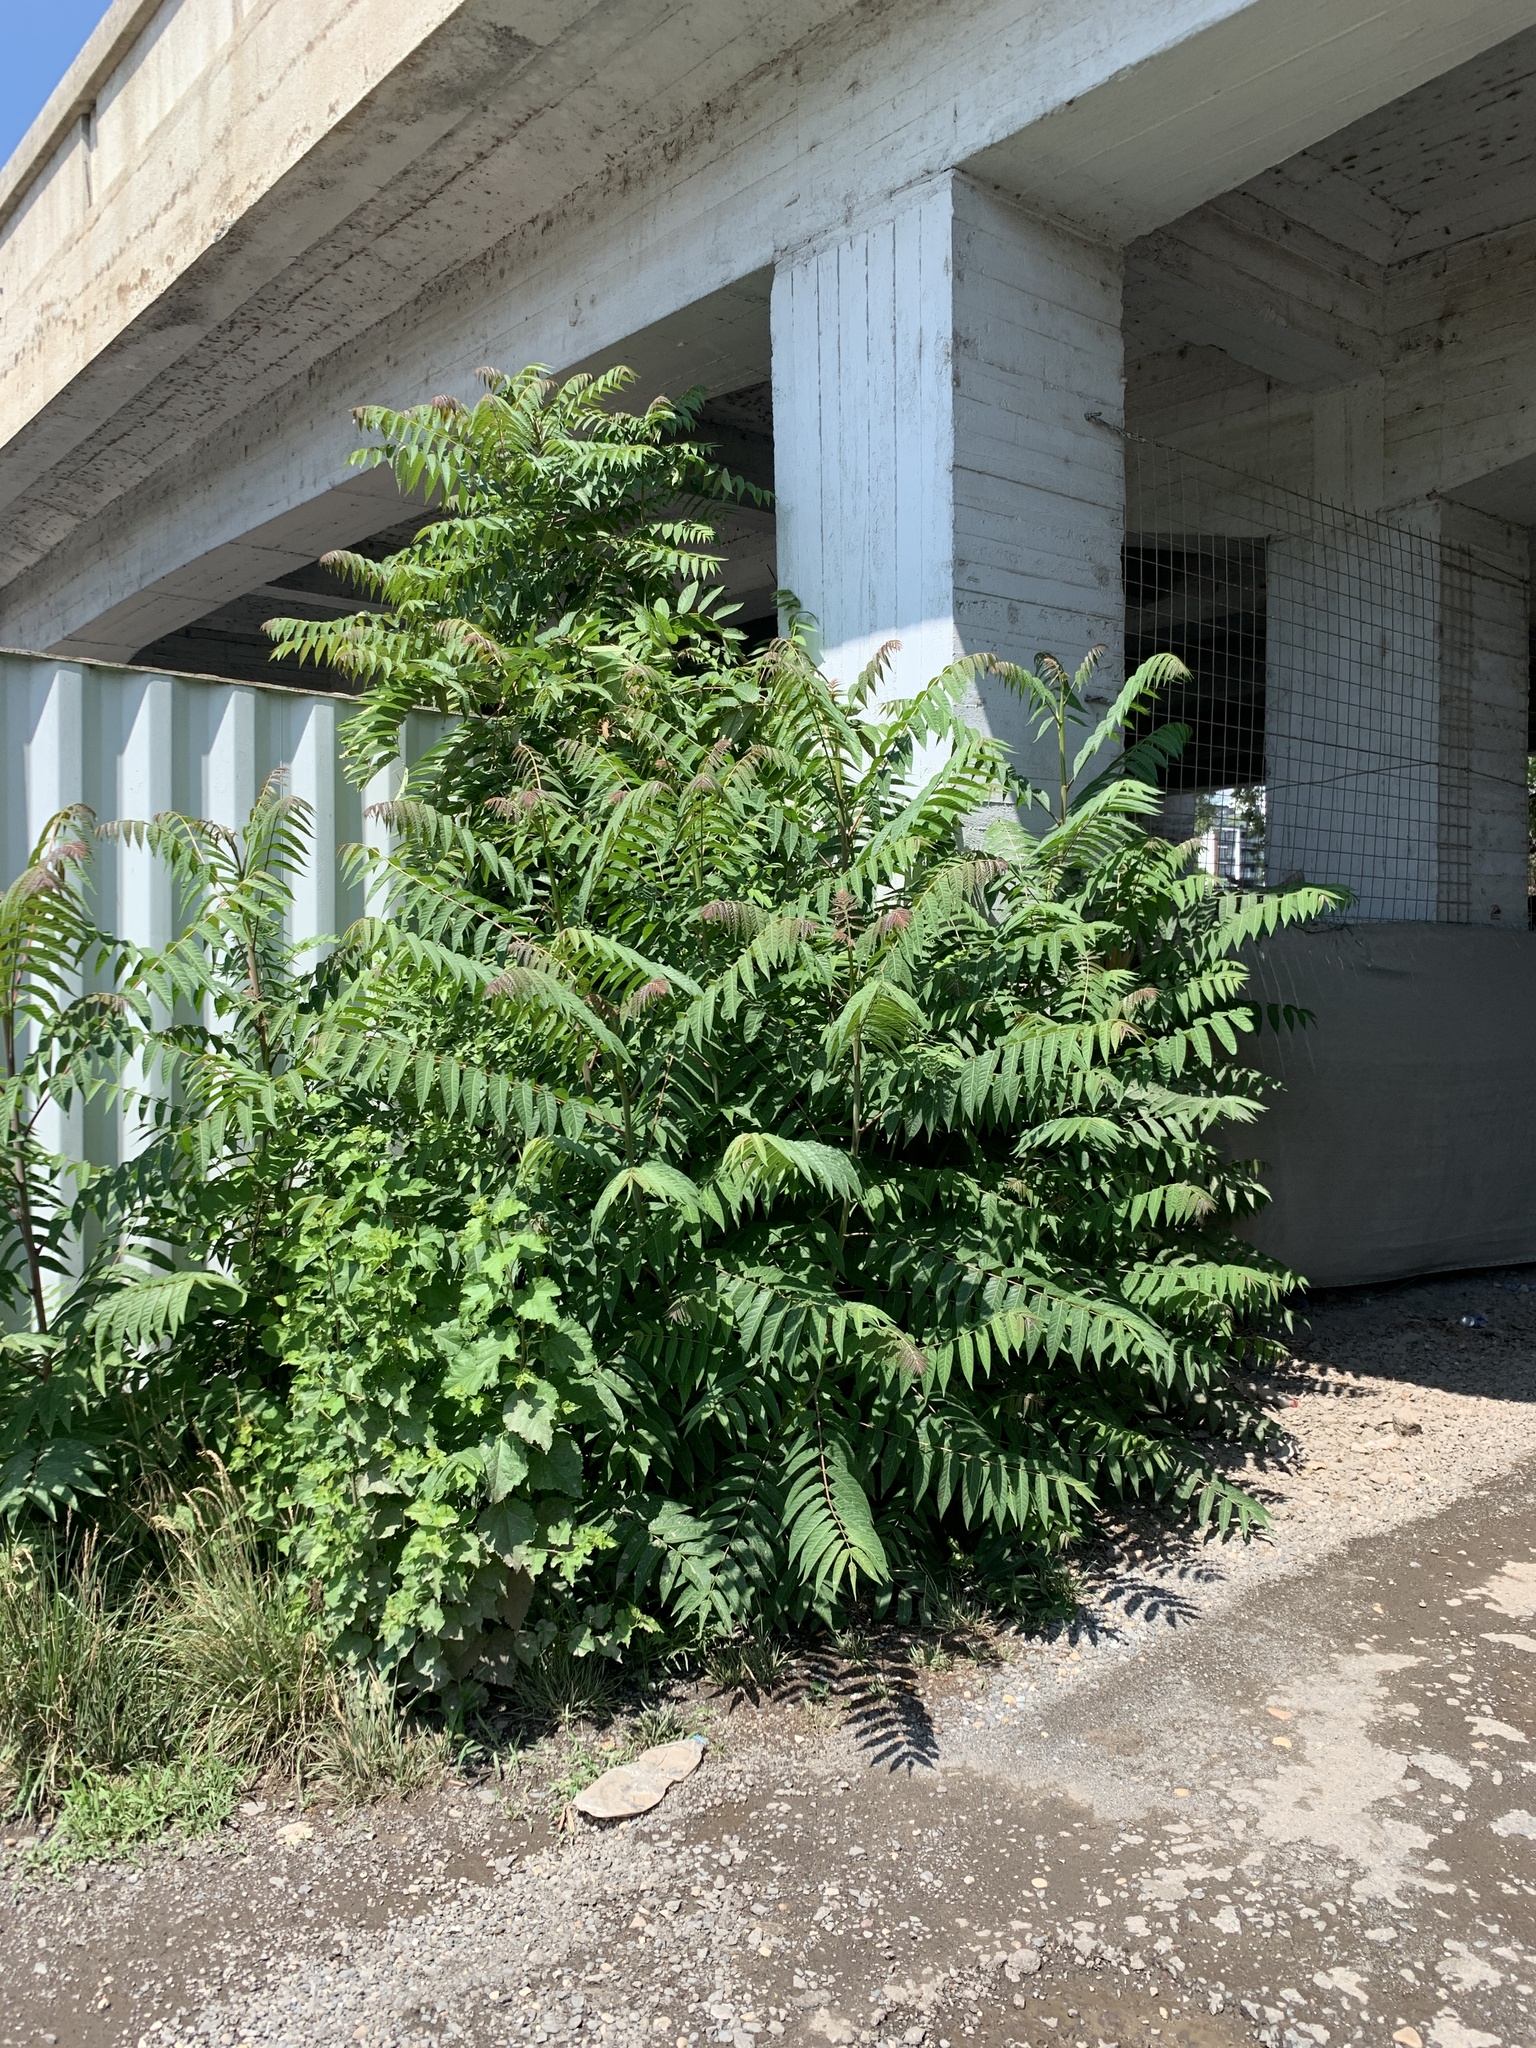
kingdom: Plantae
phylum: Tracheophyta
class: Magnoliopsida
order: Sapindales
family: Simaroubaceae
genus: Ailanthus
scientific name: Ailanthus altissima
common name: Tree-of-heaven
